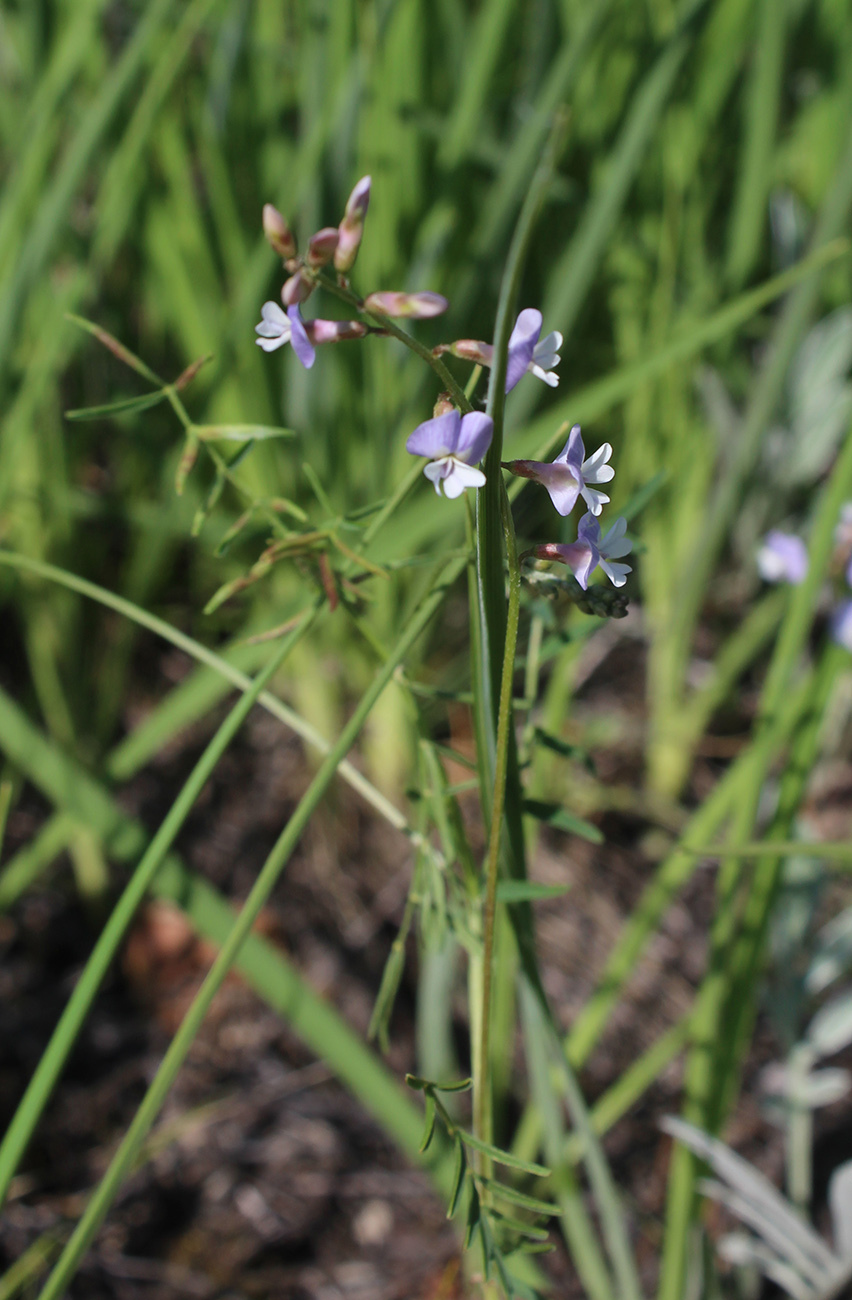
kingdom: Plantae
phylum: Tracheophyta
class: Magnoliopsida
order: Fabales
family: Fabaceae
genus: Astragalus
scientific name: Astragalus austriacus
